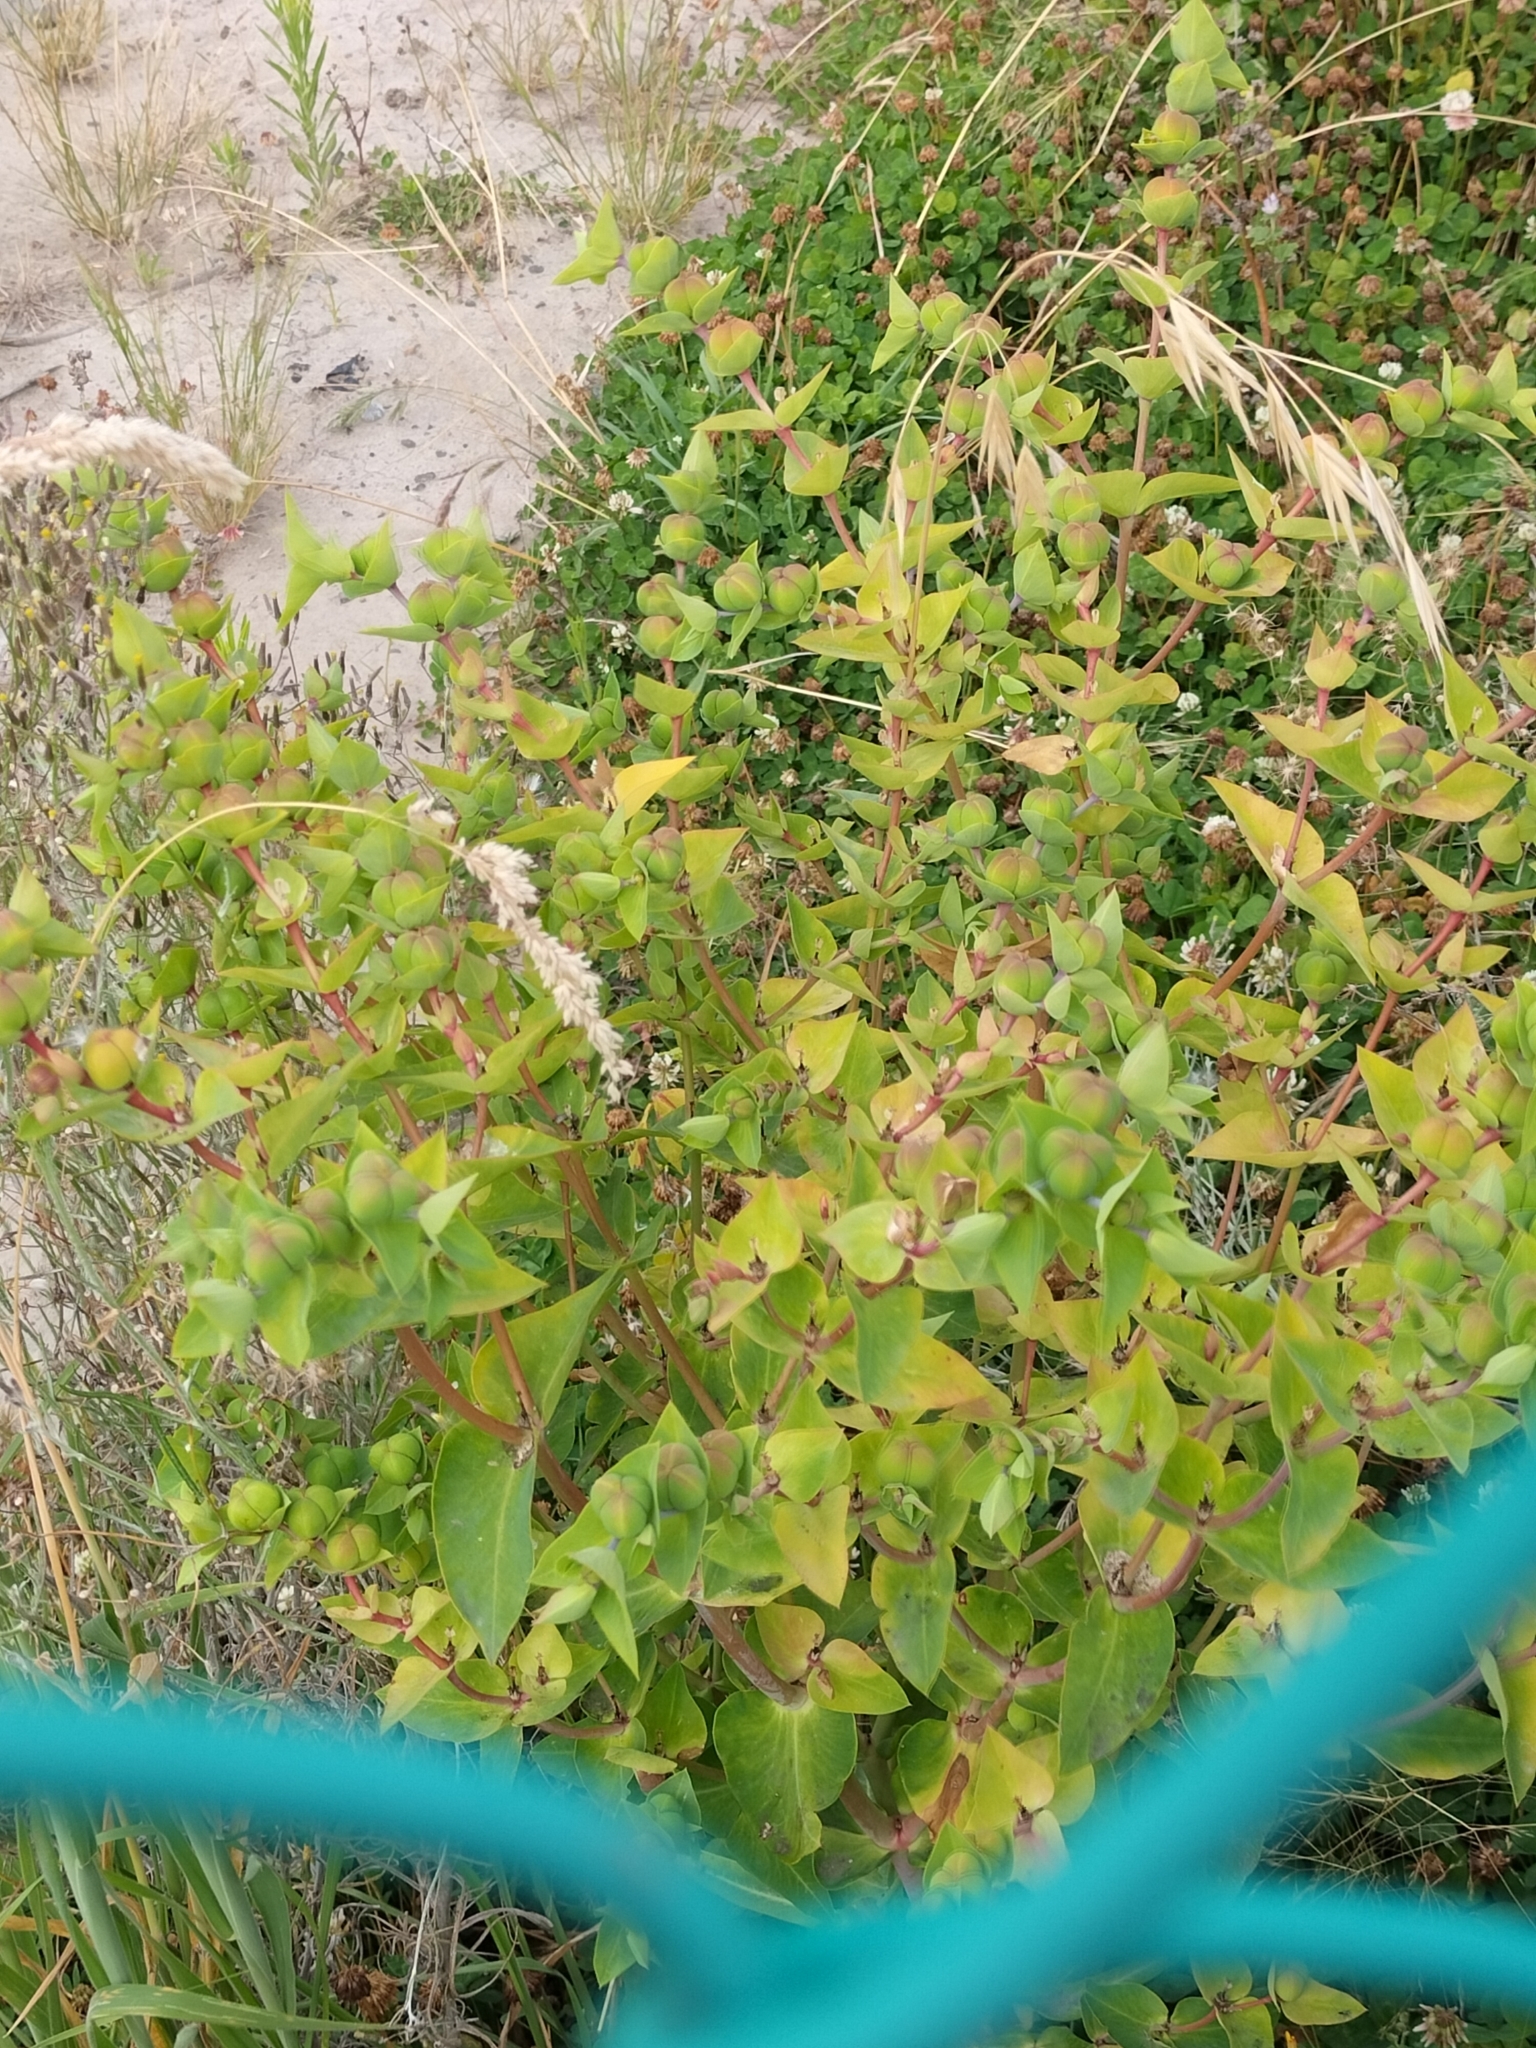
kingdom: Plantae
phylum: Tracheophyta
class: Magnoliopsida
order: Malpighiales
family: Euphorbiaceae
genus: Euphorbia
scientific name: Euphorbia lathyris
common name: Caper spurge
